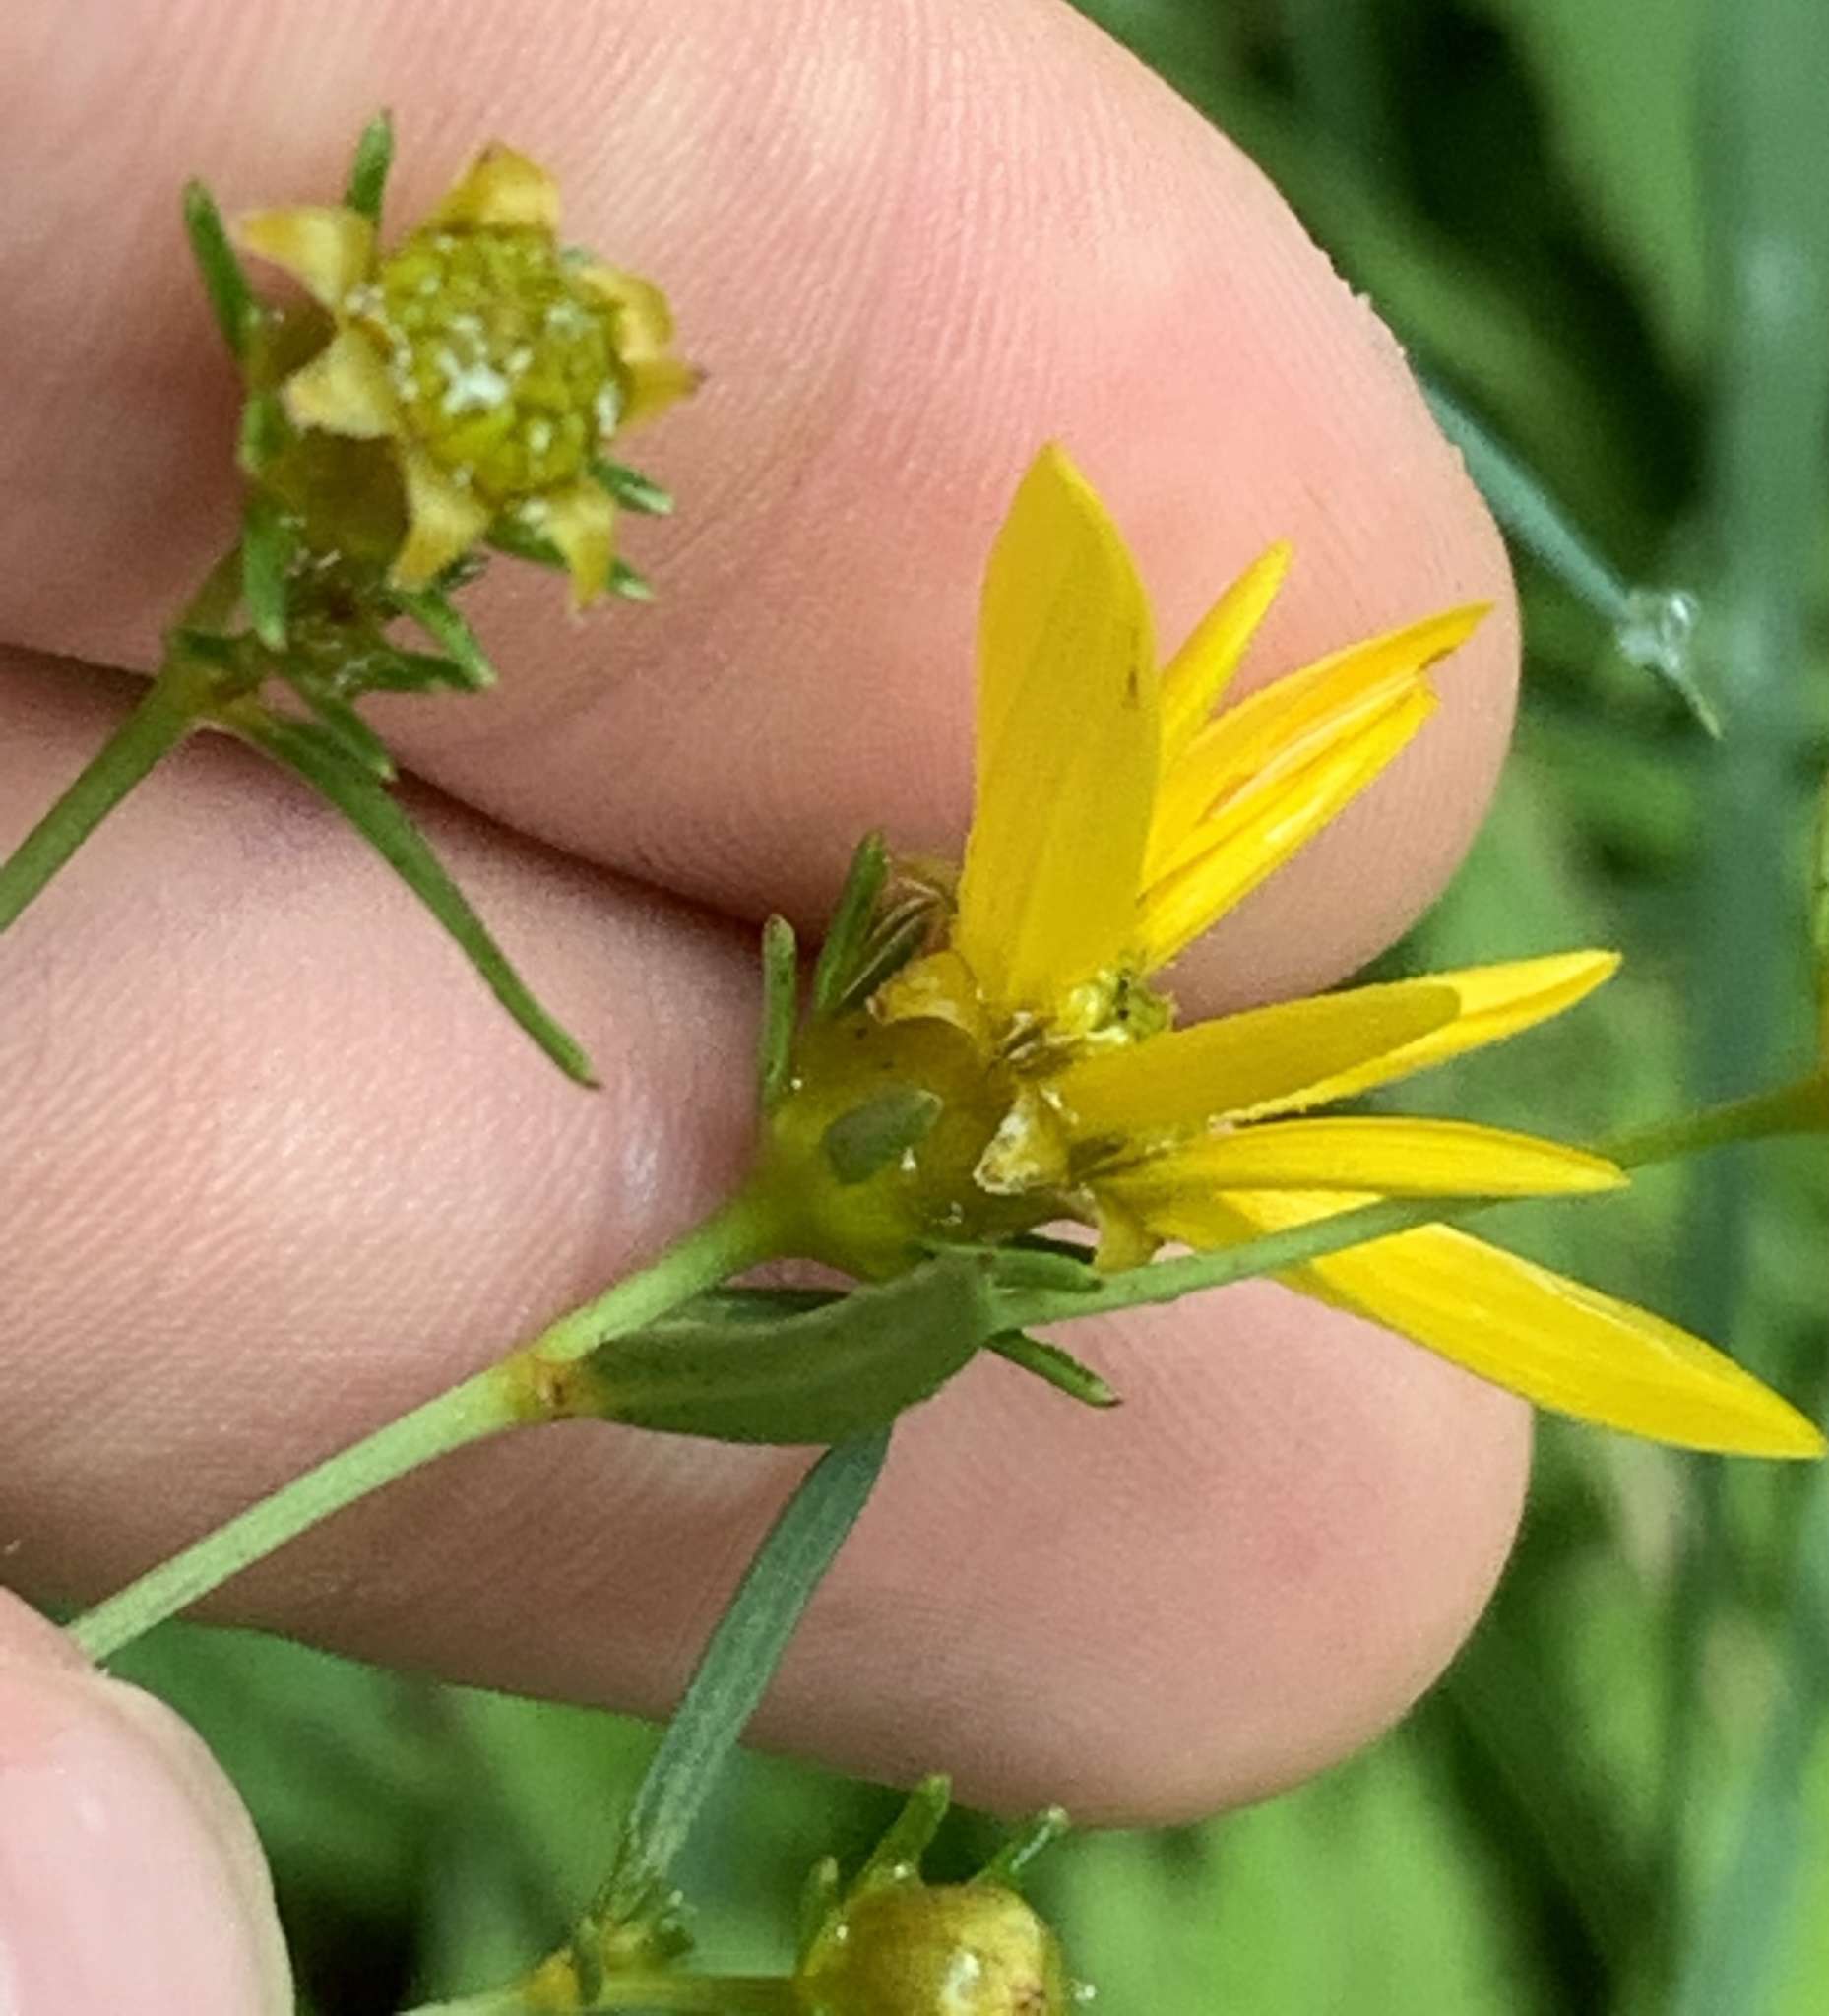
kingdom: Plantae
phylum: Tracheophyta
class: Magnoliopsida
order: Asterales
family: Asteraceae
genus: Coreopsis
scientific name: Coreopsis major
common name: Forest tickseed
